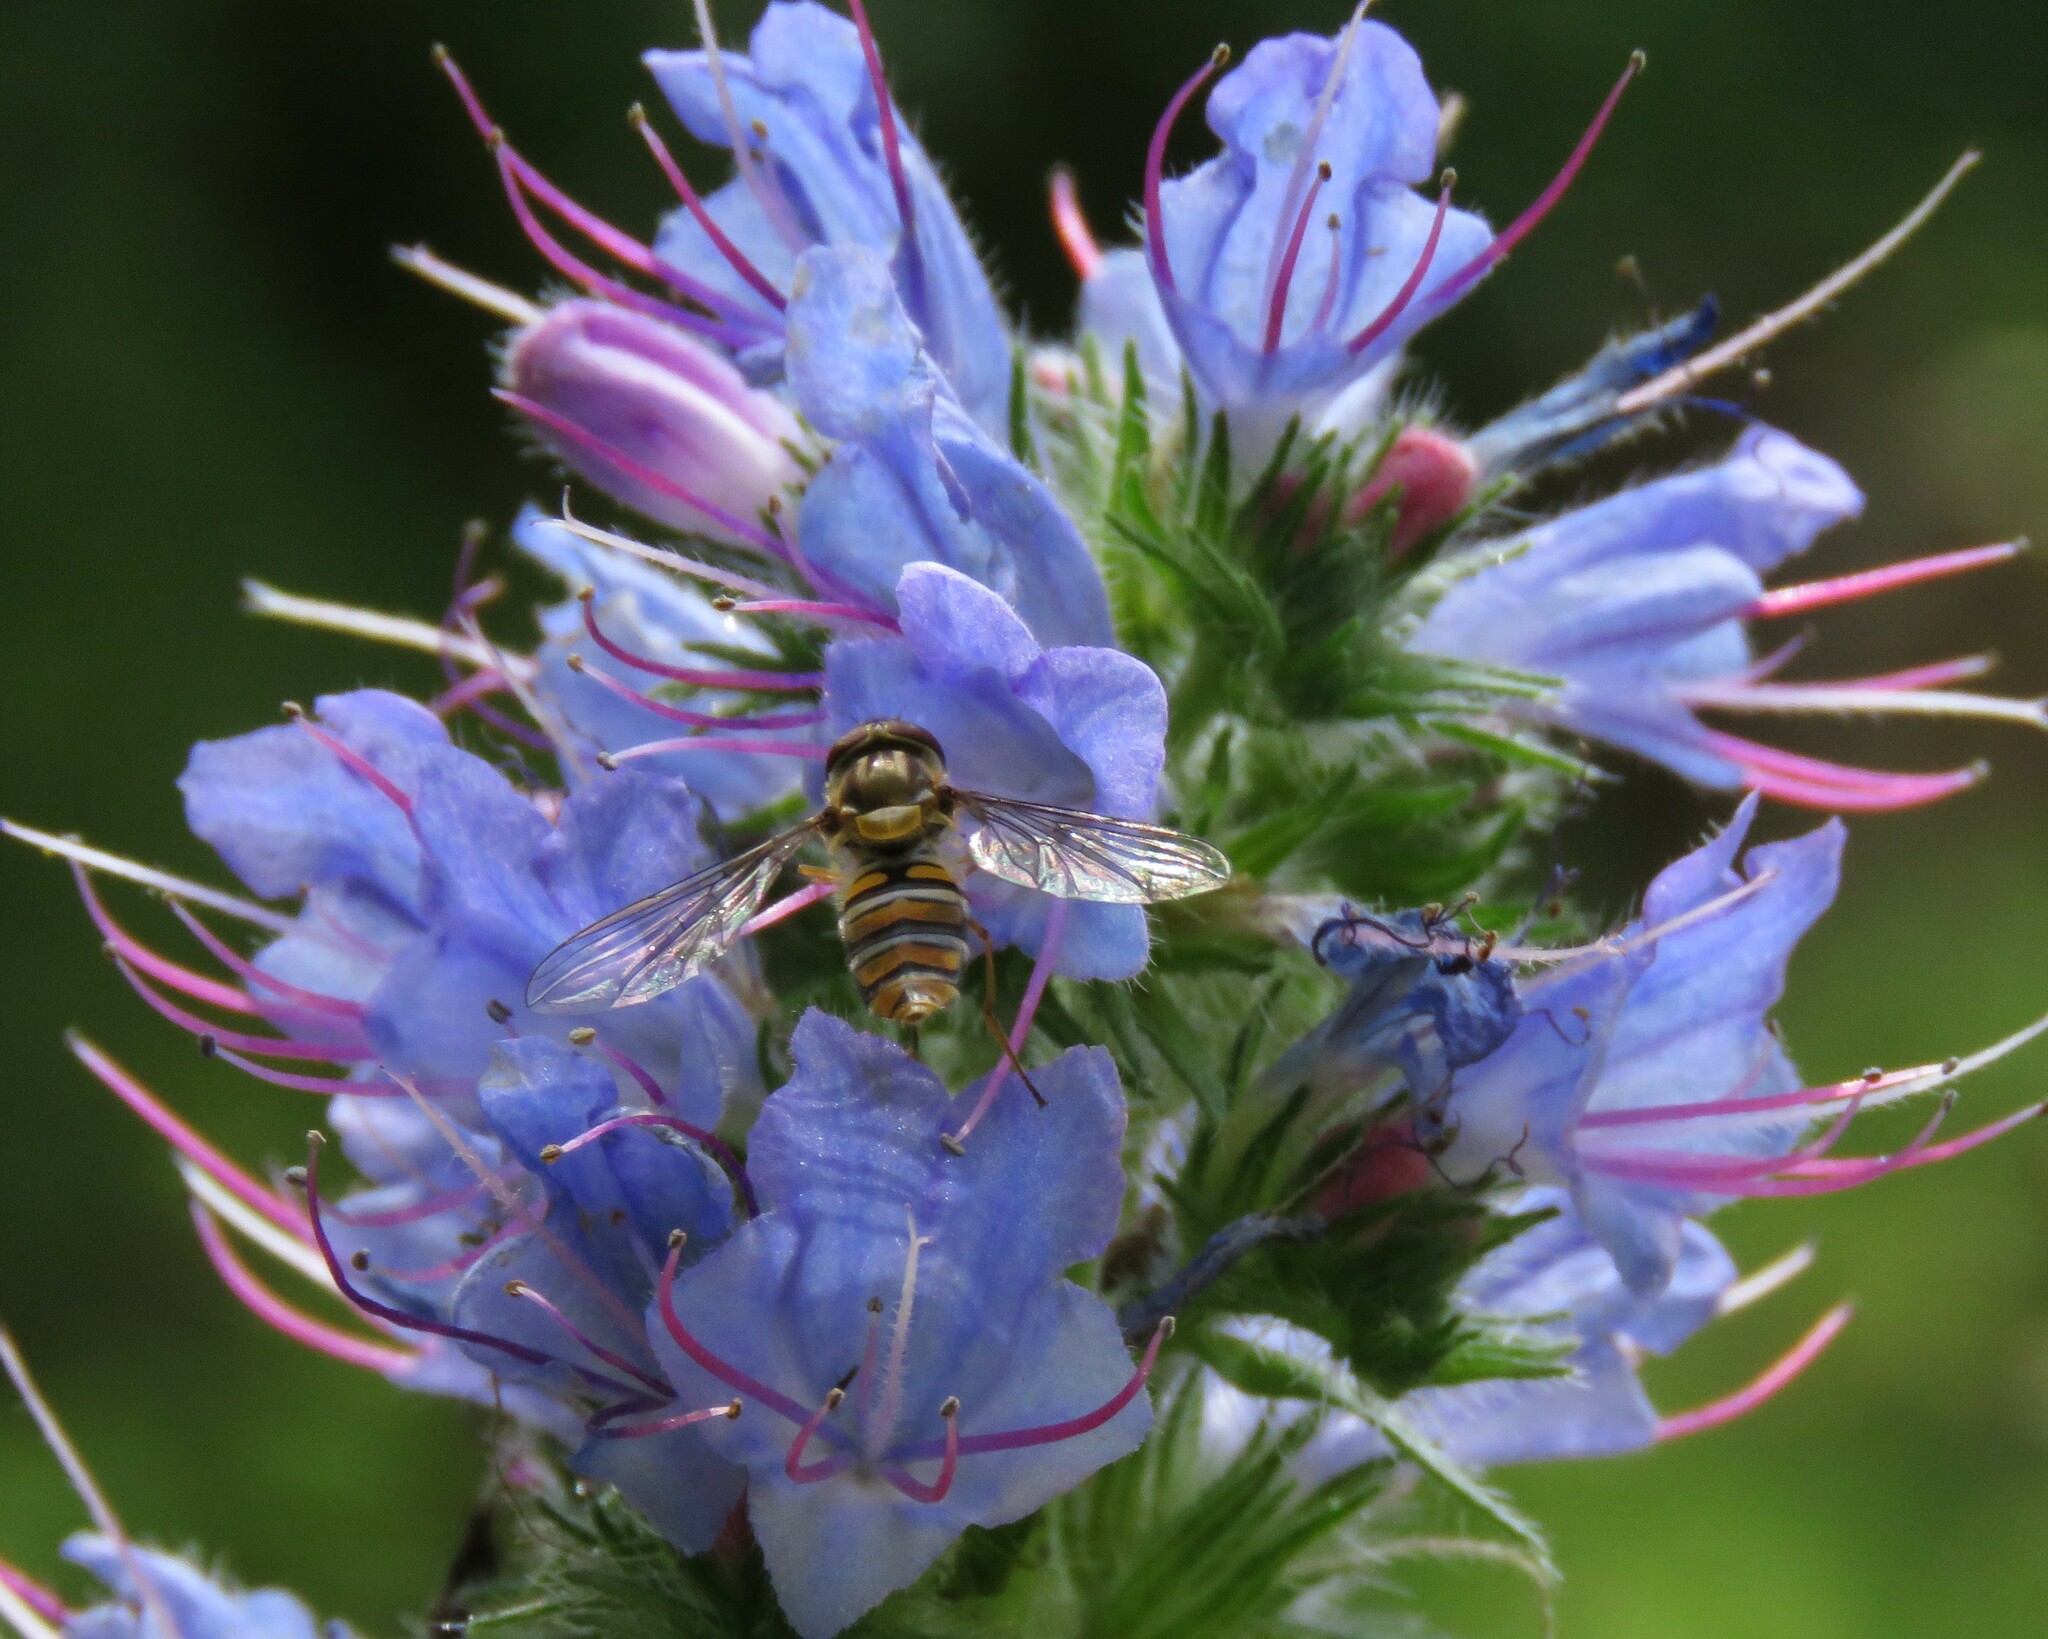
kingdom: Animalia
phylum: Arthropoda
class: Insecta
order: Diptera
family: Syrphidae
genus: Episyrphus
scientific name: Episyrphus balteatus
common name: Marmalade hoverfly
